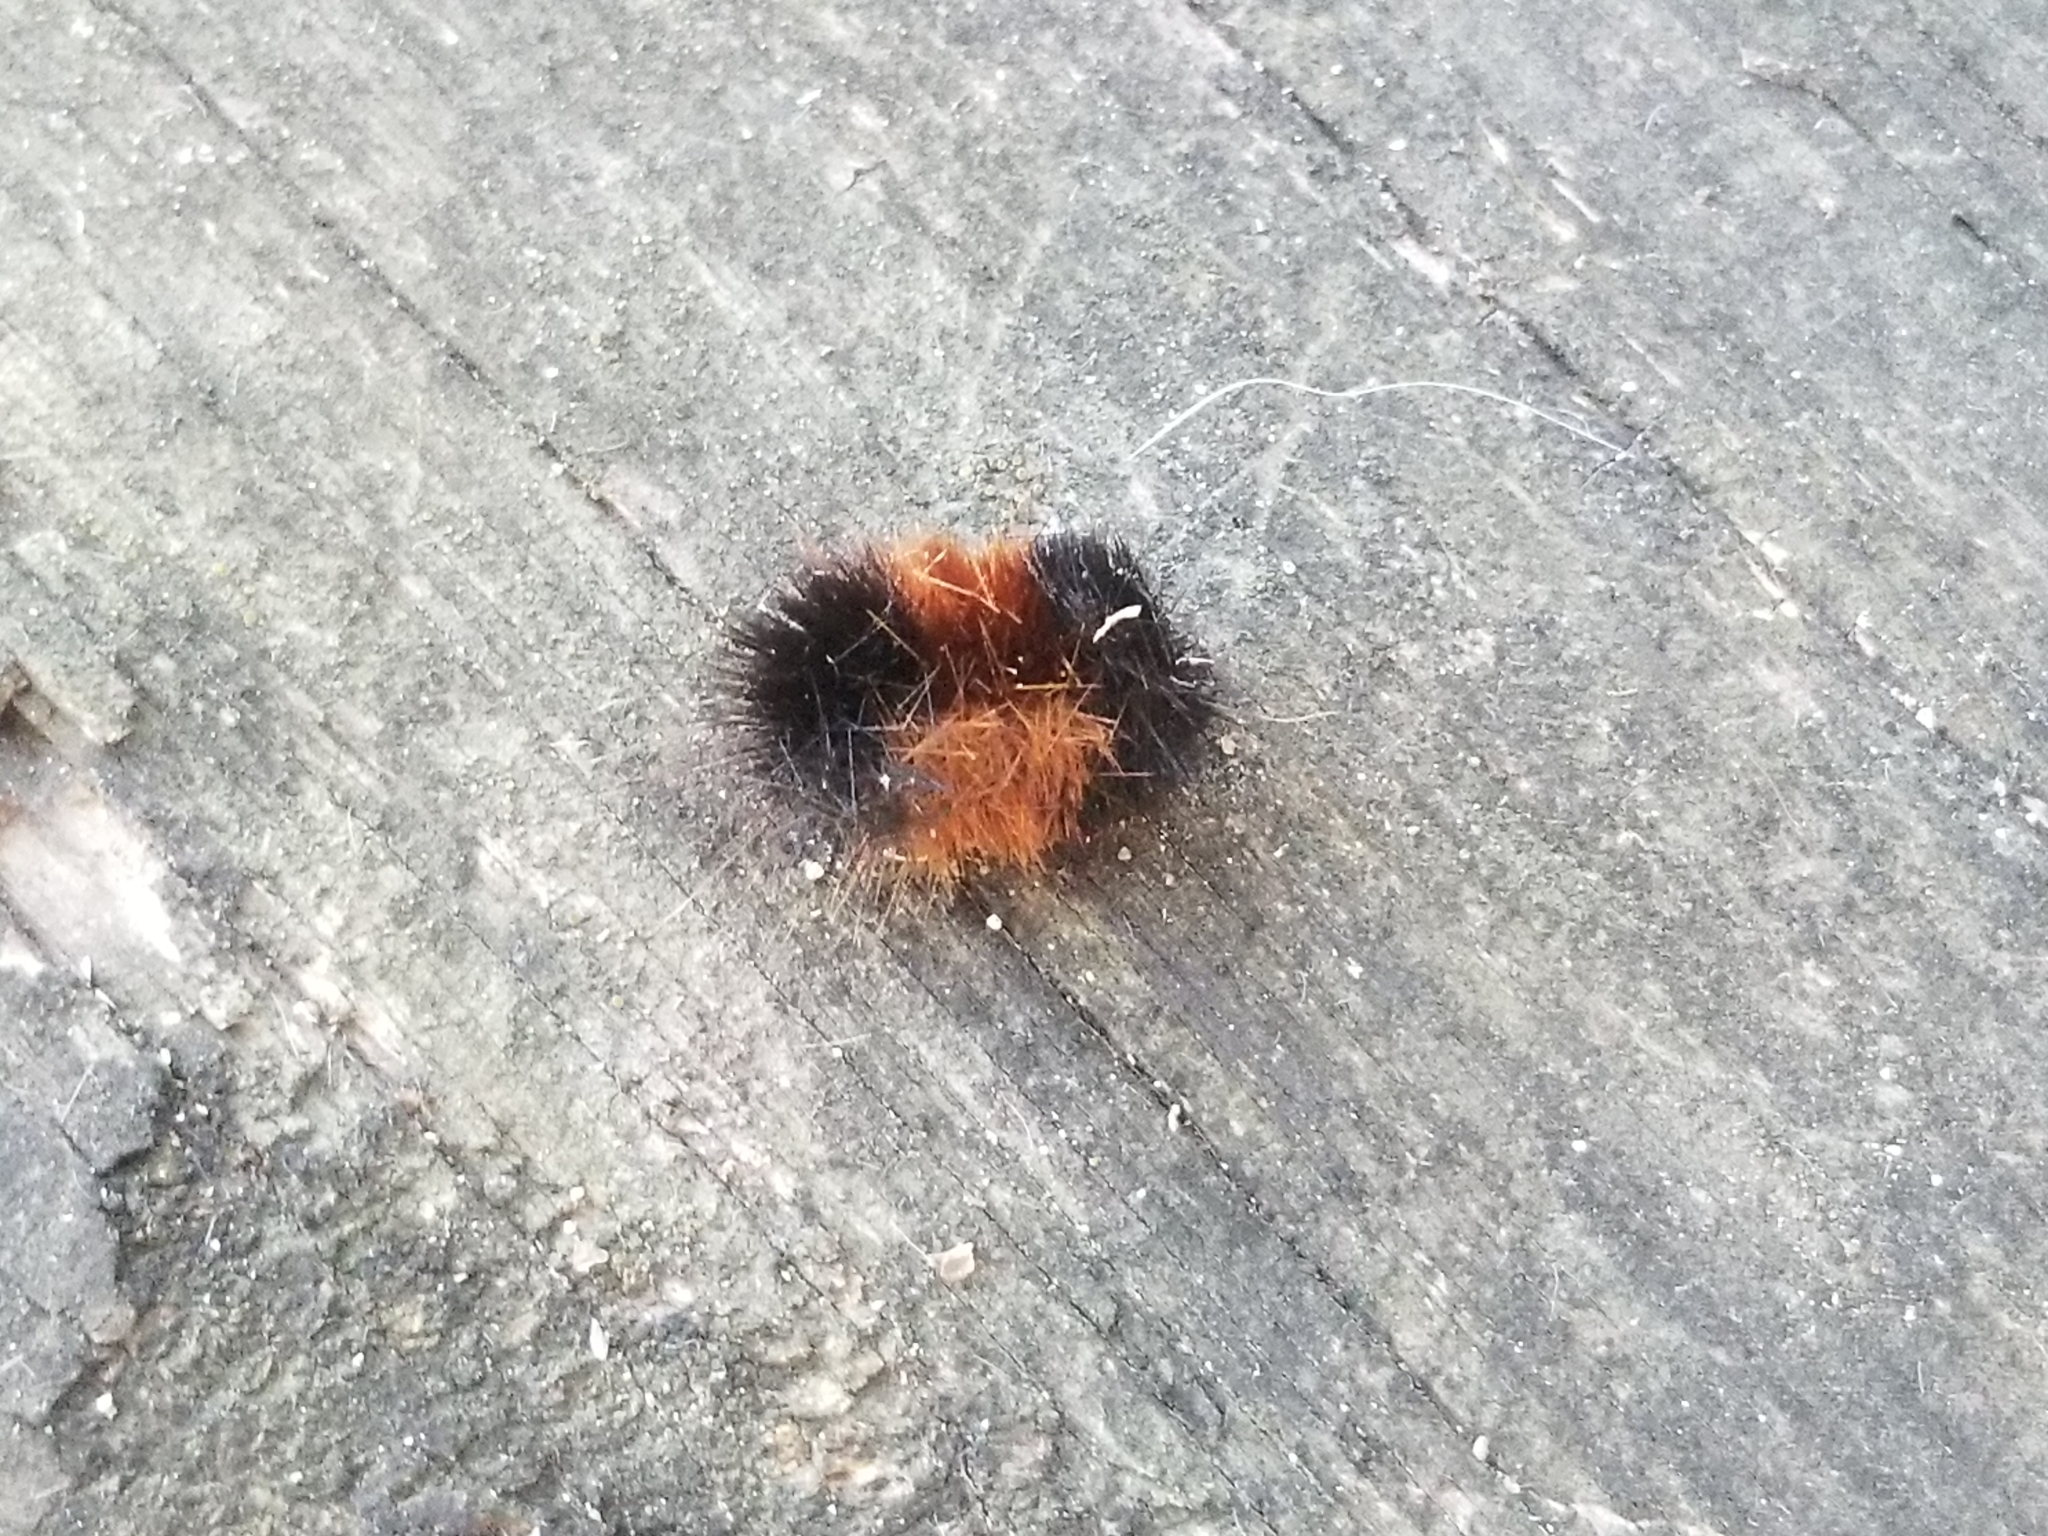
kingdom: Animalia
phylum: Arthropoda
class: Insecta
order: Lepidoptera
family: Erebidae
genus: Pyrrharctia
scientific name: Pyrrharctia isabella
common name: Isabella tiger moth
